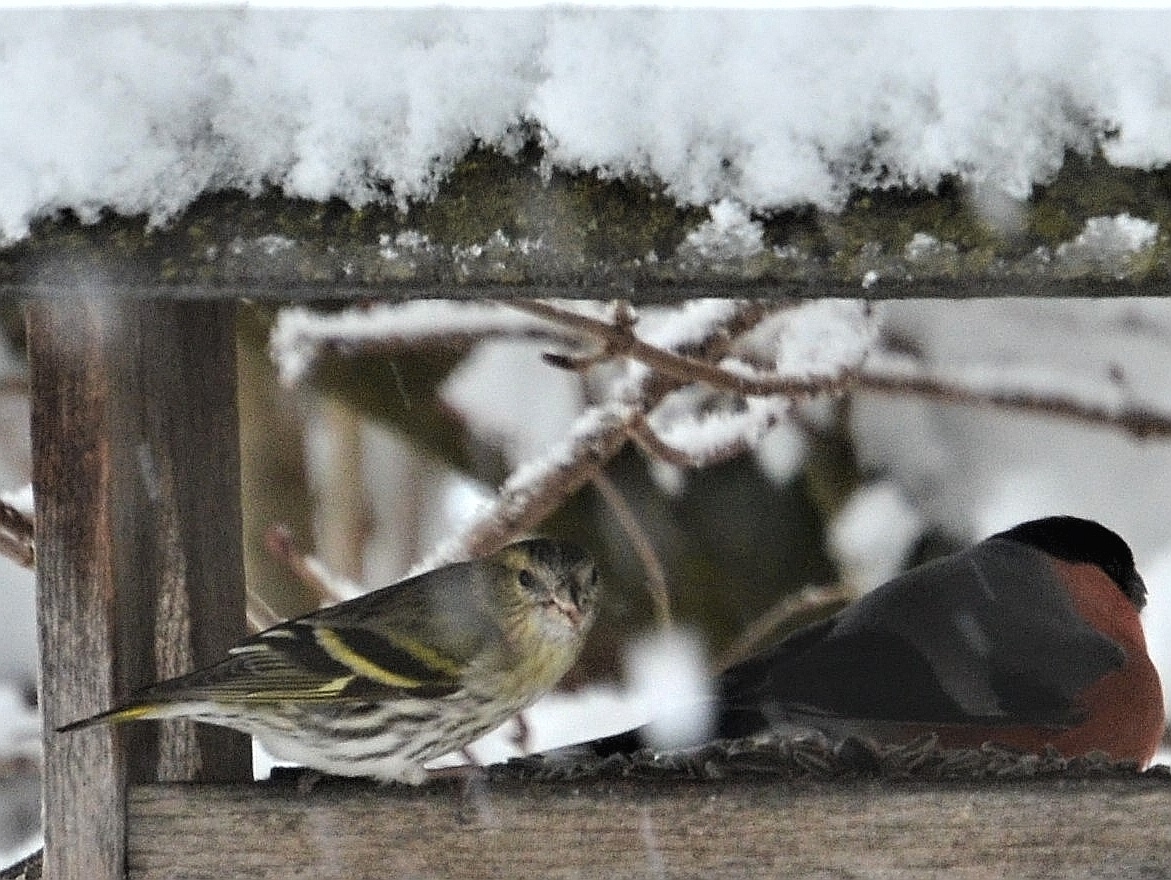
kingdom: Animalia
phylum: Chordata
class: Aves
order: Passeriformes
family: Fringillidae
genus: Pyrrhula
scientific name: Pyrrhula pyrrhula
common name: Eurasian bullfinch
